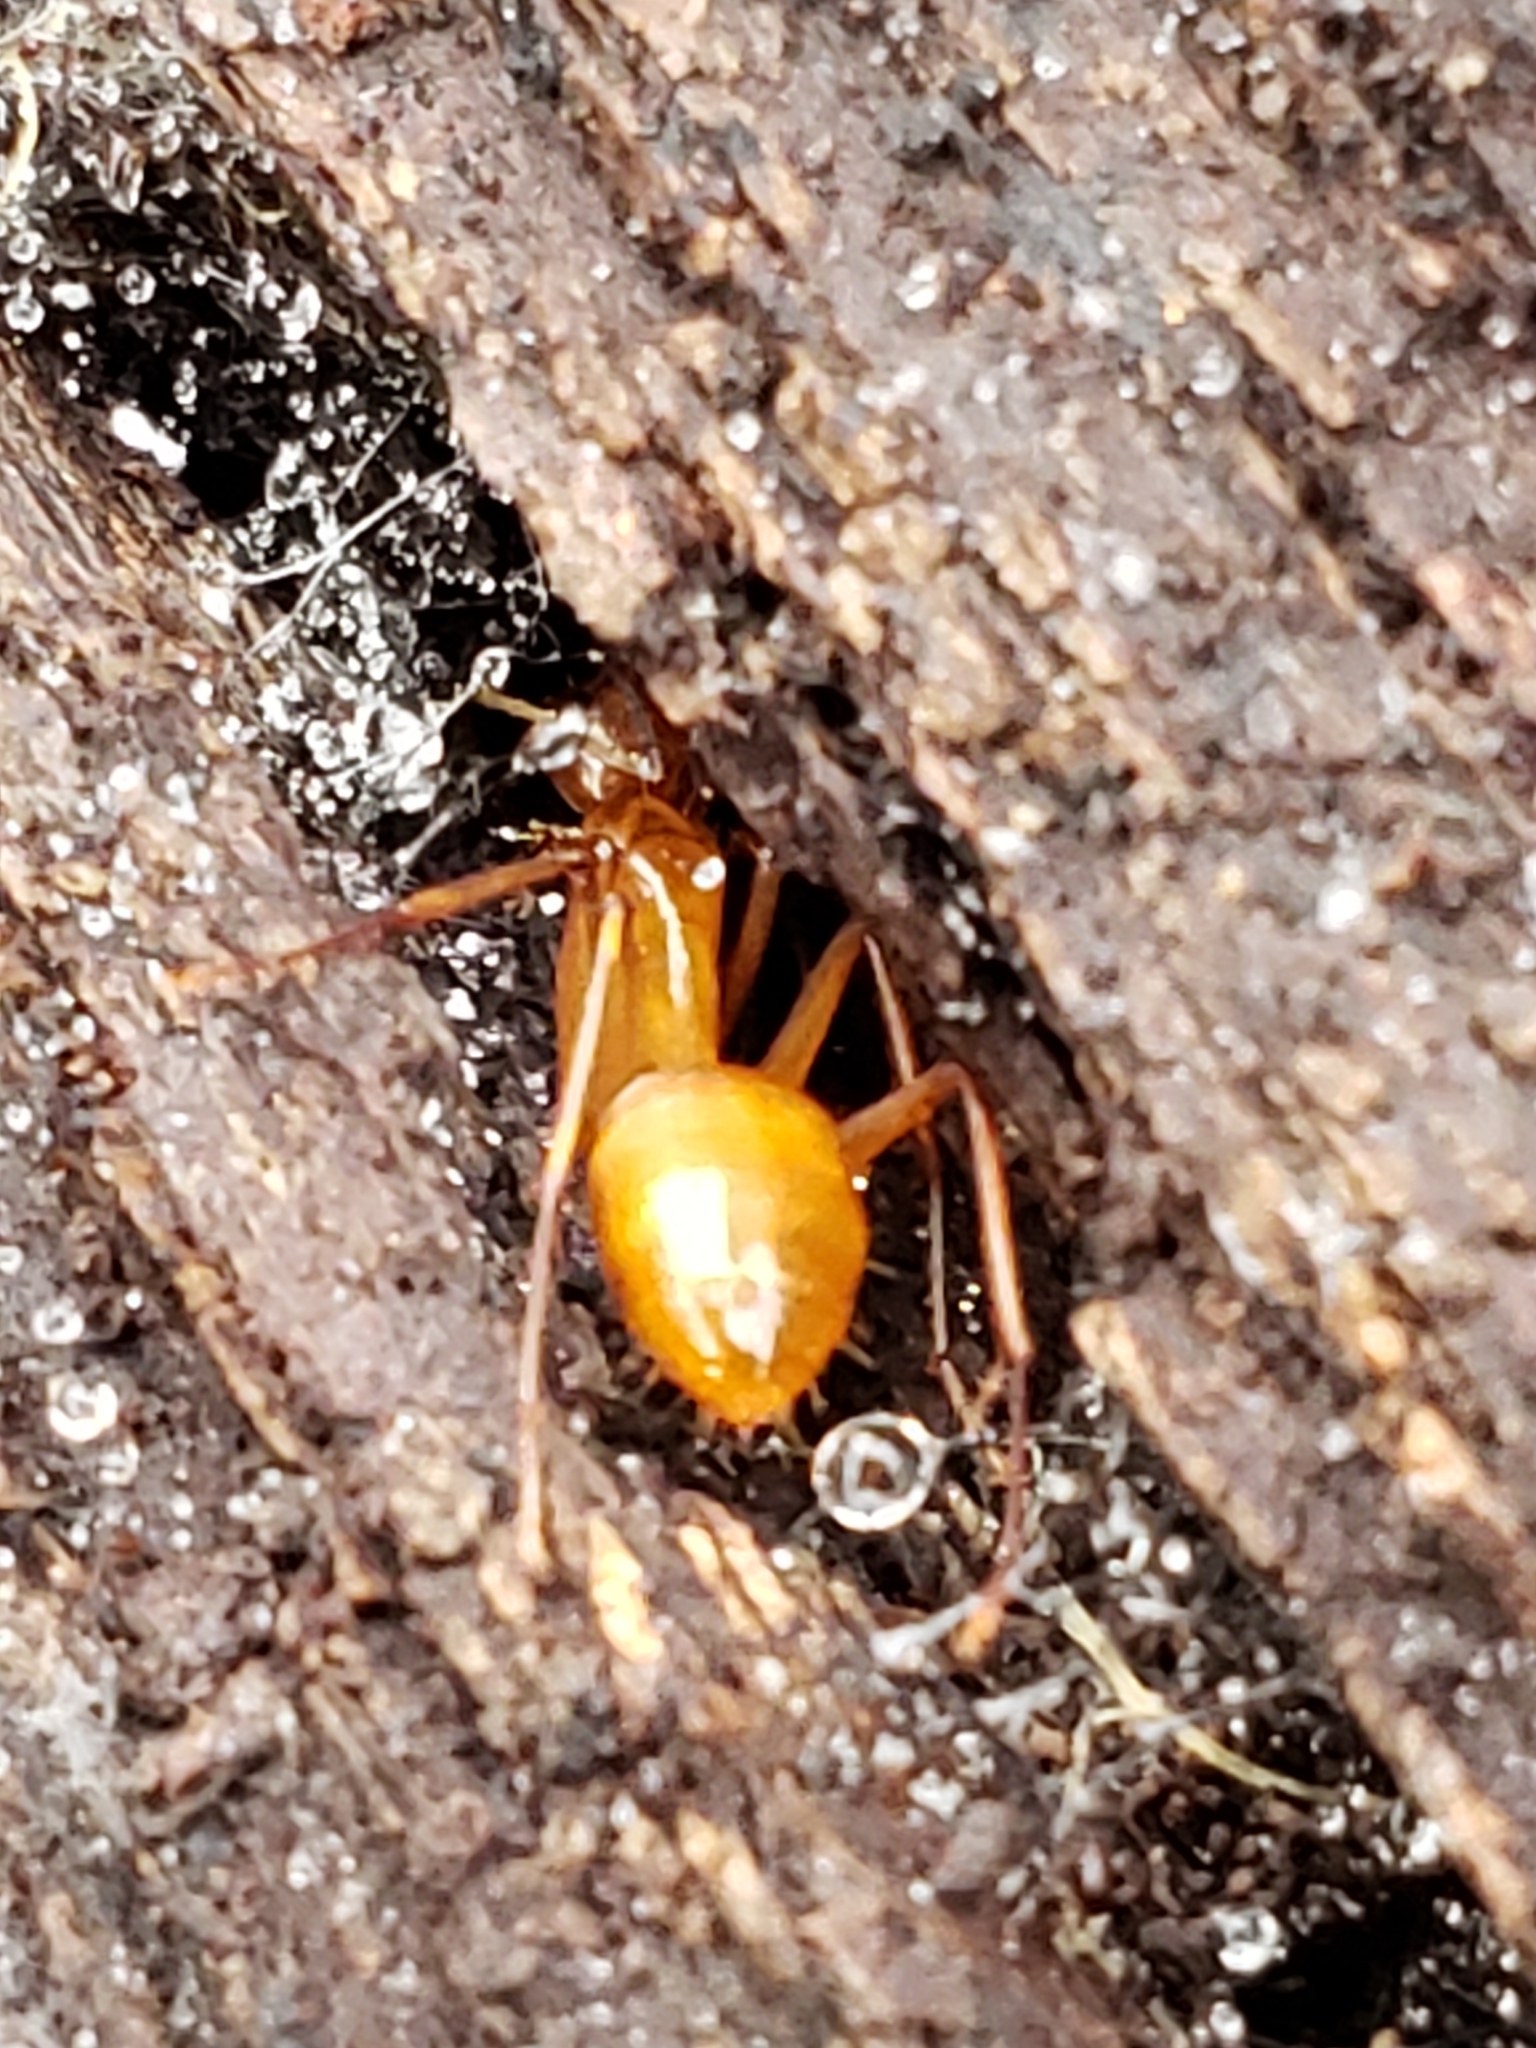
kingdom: Animalia
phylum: Arthropoda
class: Insecta
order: Hymenoptera
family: Formicidae
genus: Camponotus
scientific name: Camponotus castaneus
